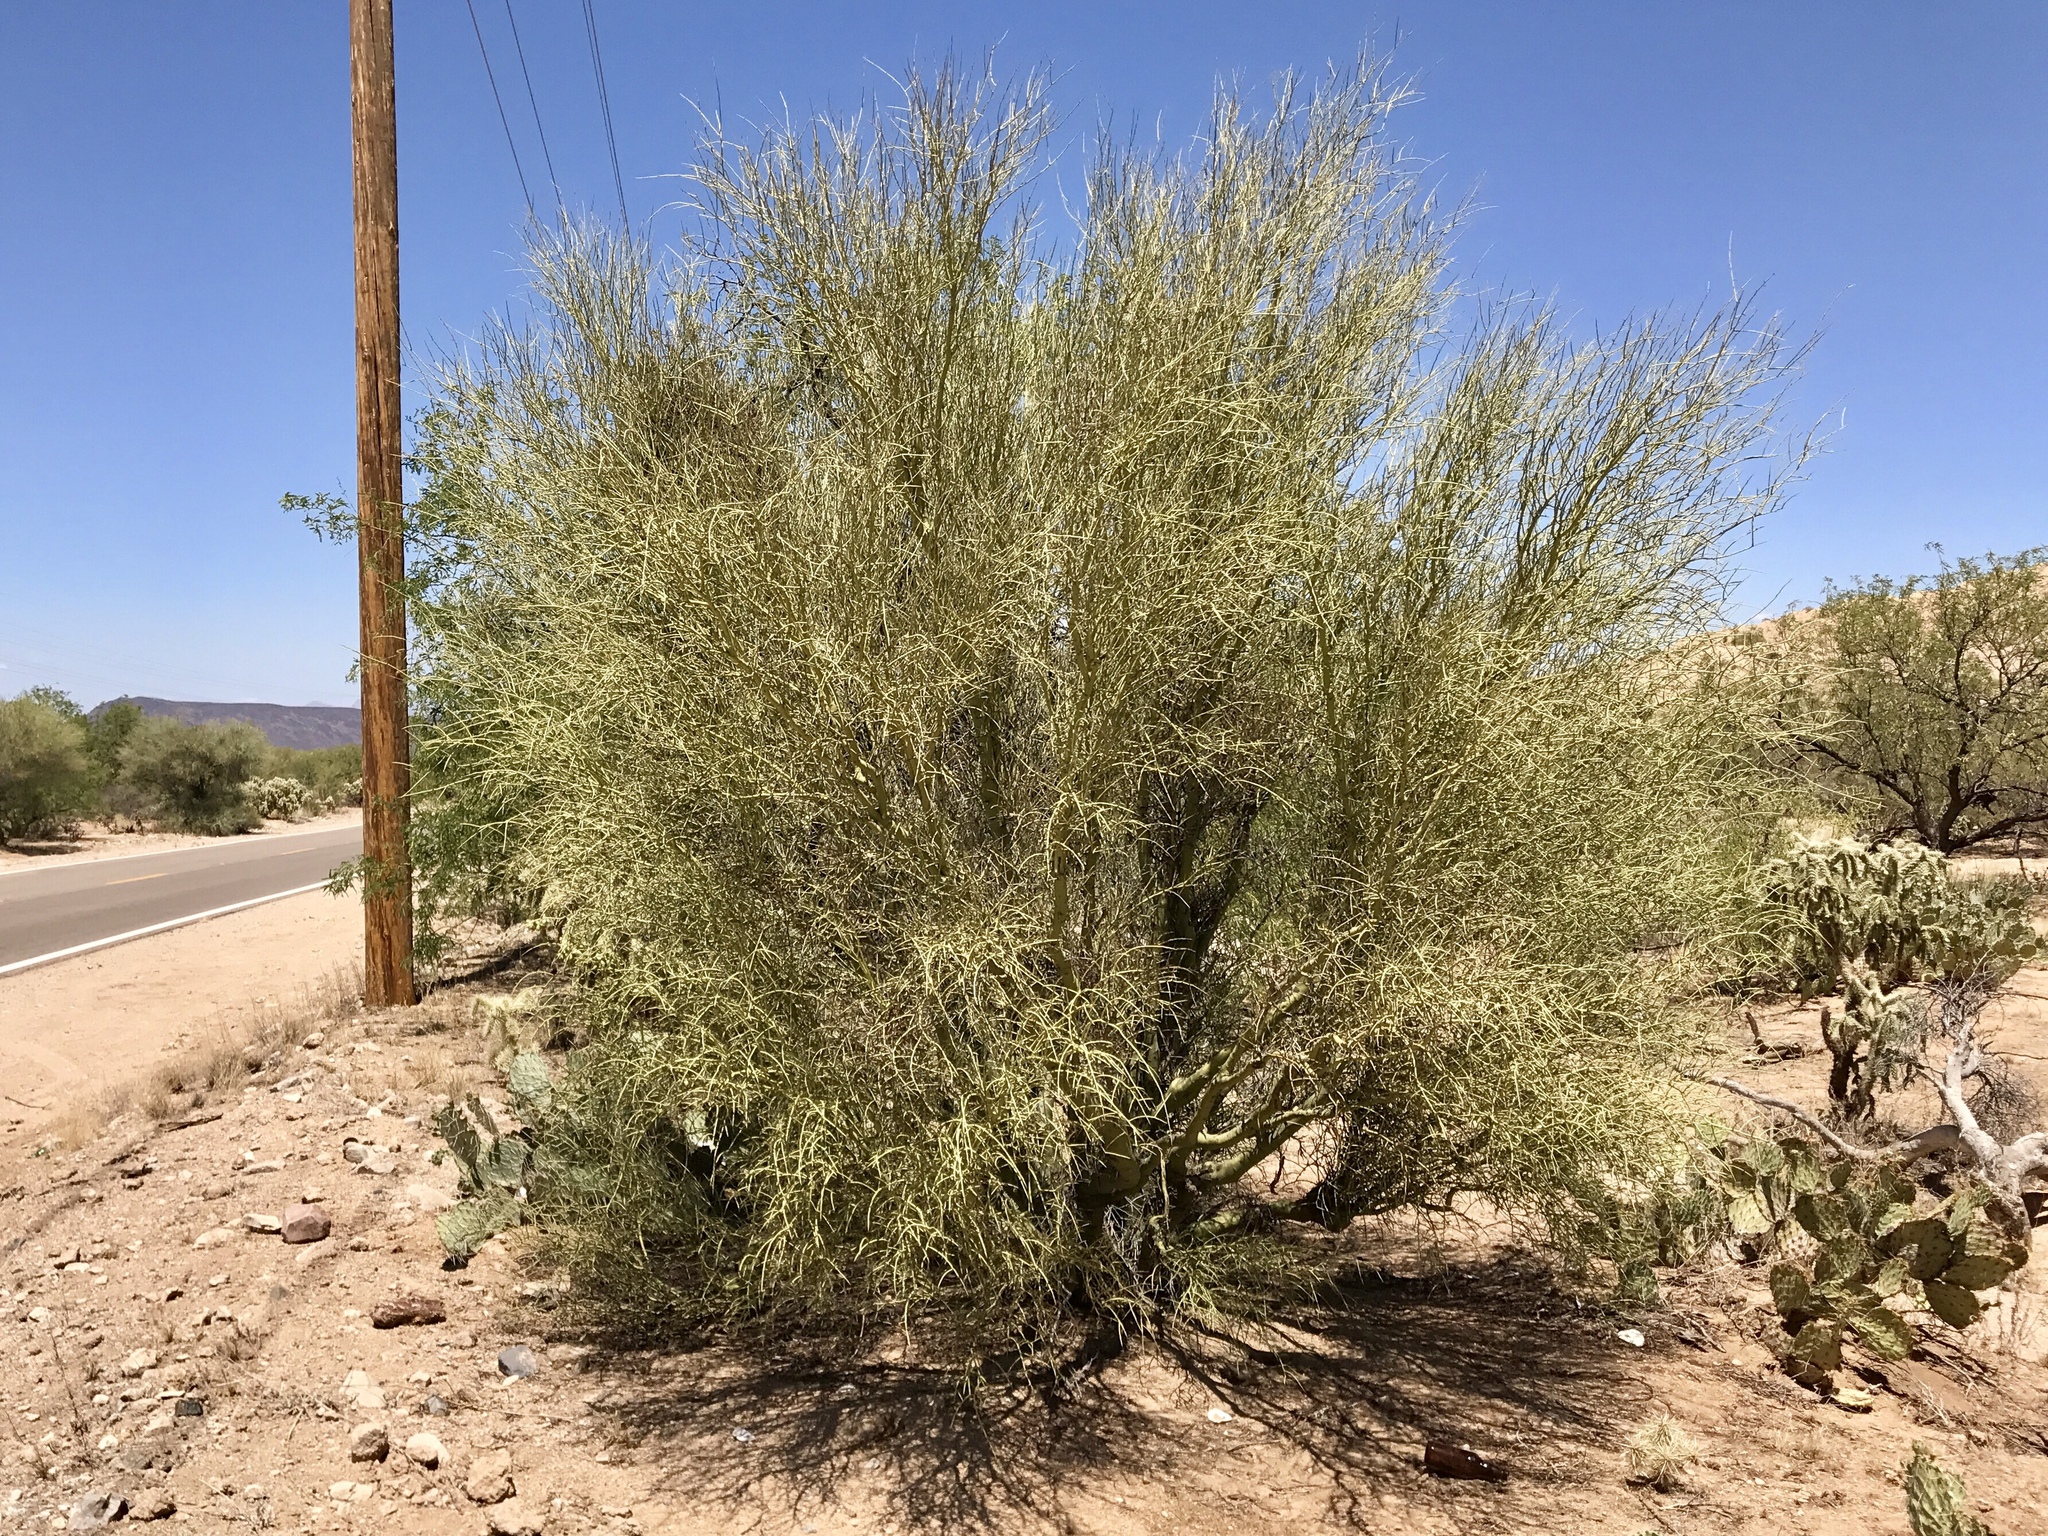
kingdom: Plantae
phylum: Tracheophyta
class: Magnoliopsida
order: Fabales
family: Fabaceae
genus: Parkinsonia
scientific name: Parkinsonia microphylla
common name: Yellow paloverde
